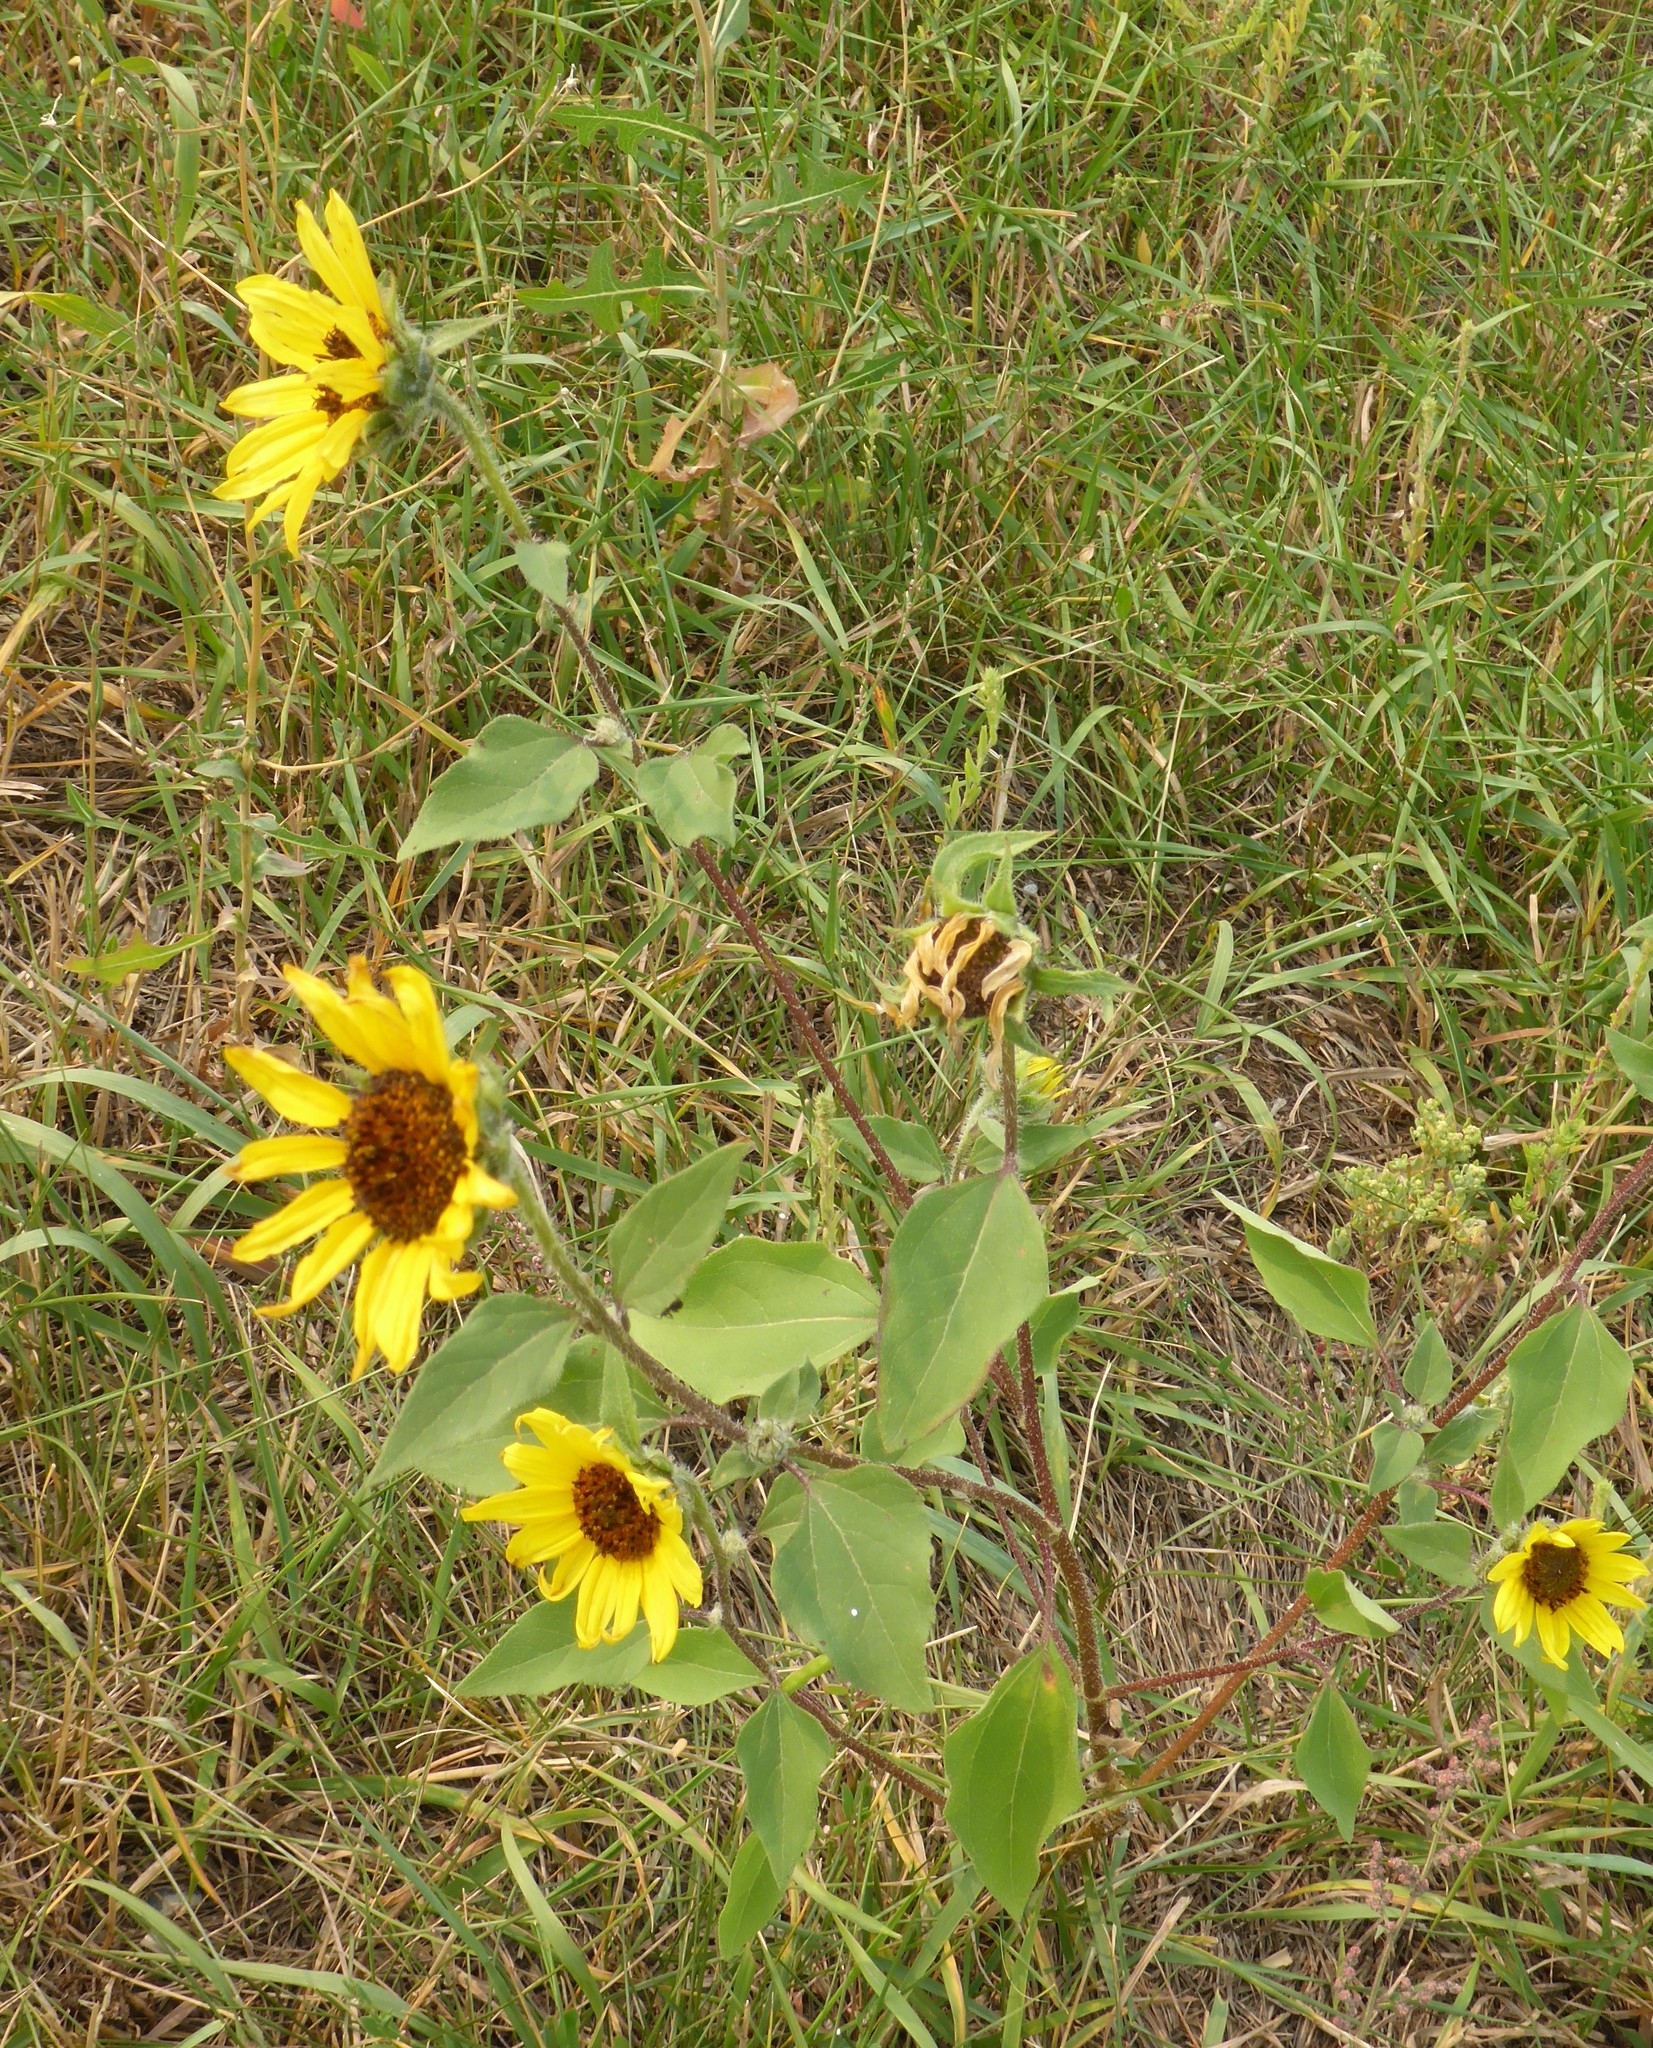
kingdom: Plantae
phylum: Tracheophyta
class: Magnoliopsida
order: Asterales
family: Asteraceae
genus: Helianthus
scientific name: Helianthus annuus
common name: Sunflower
